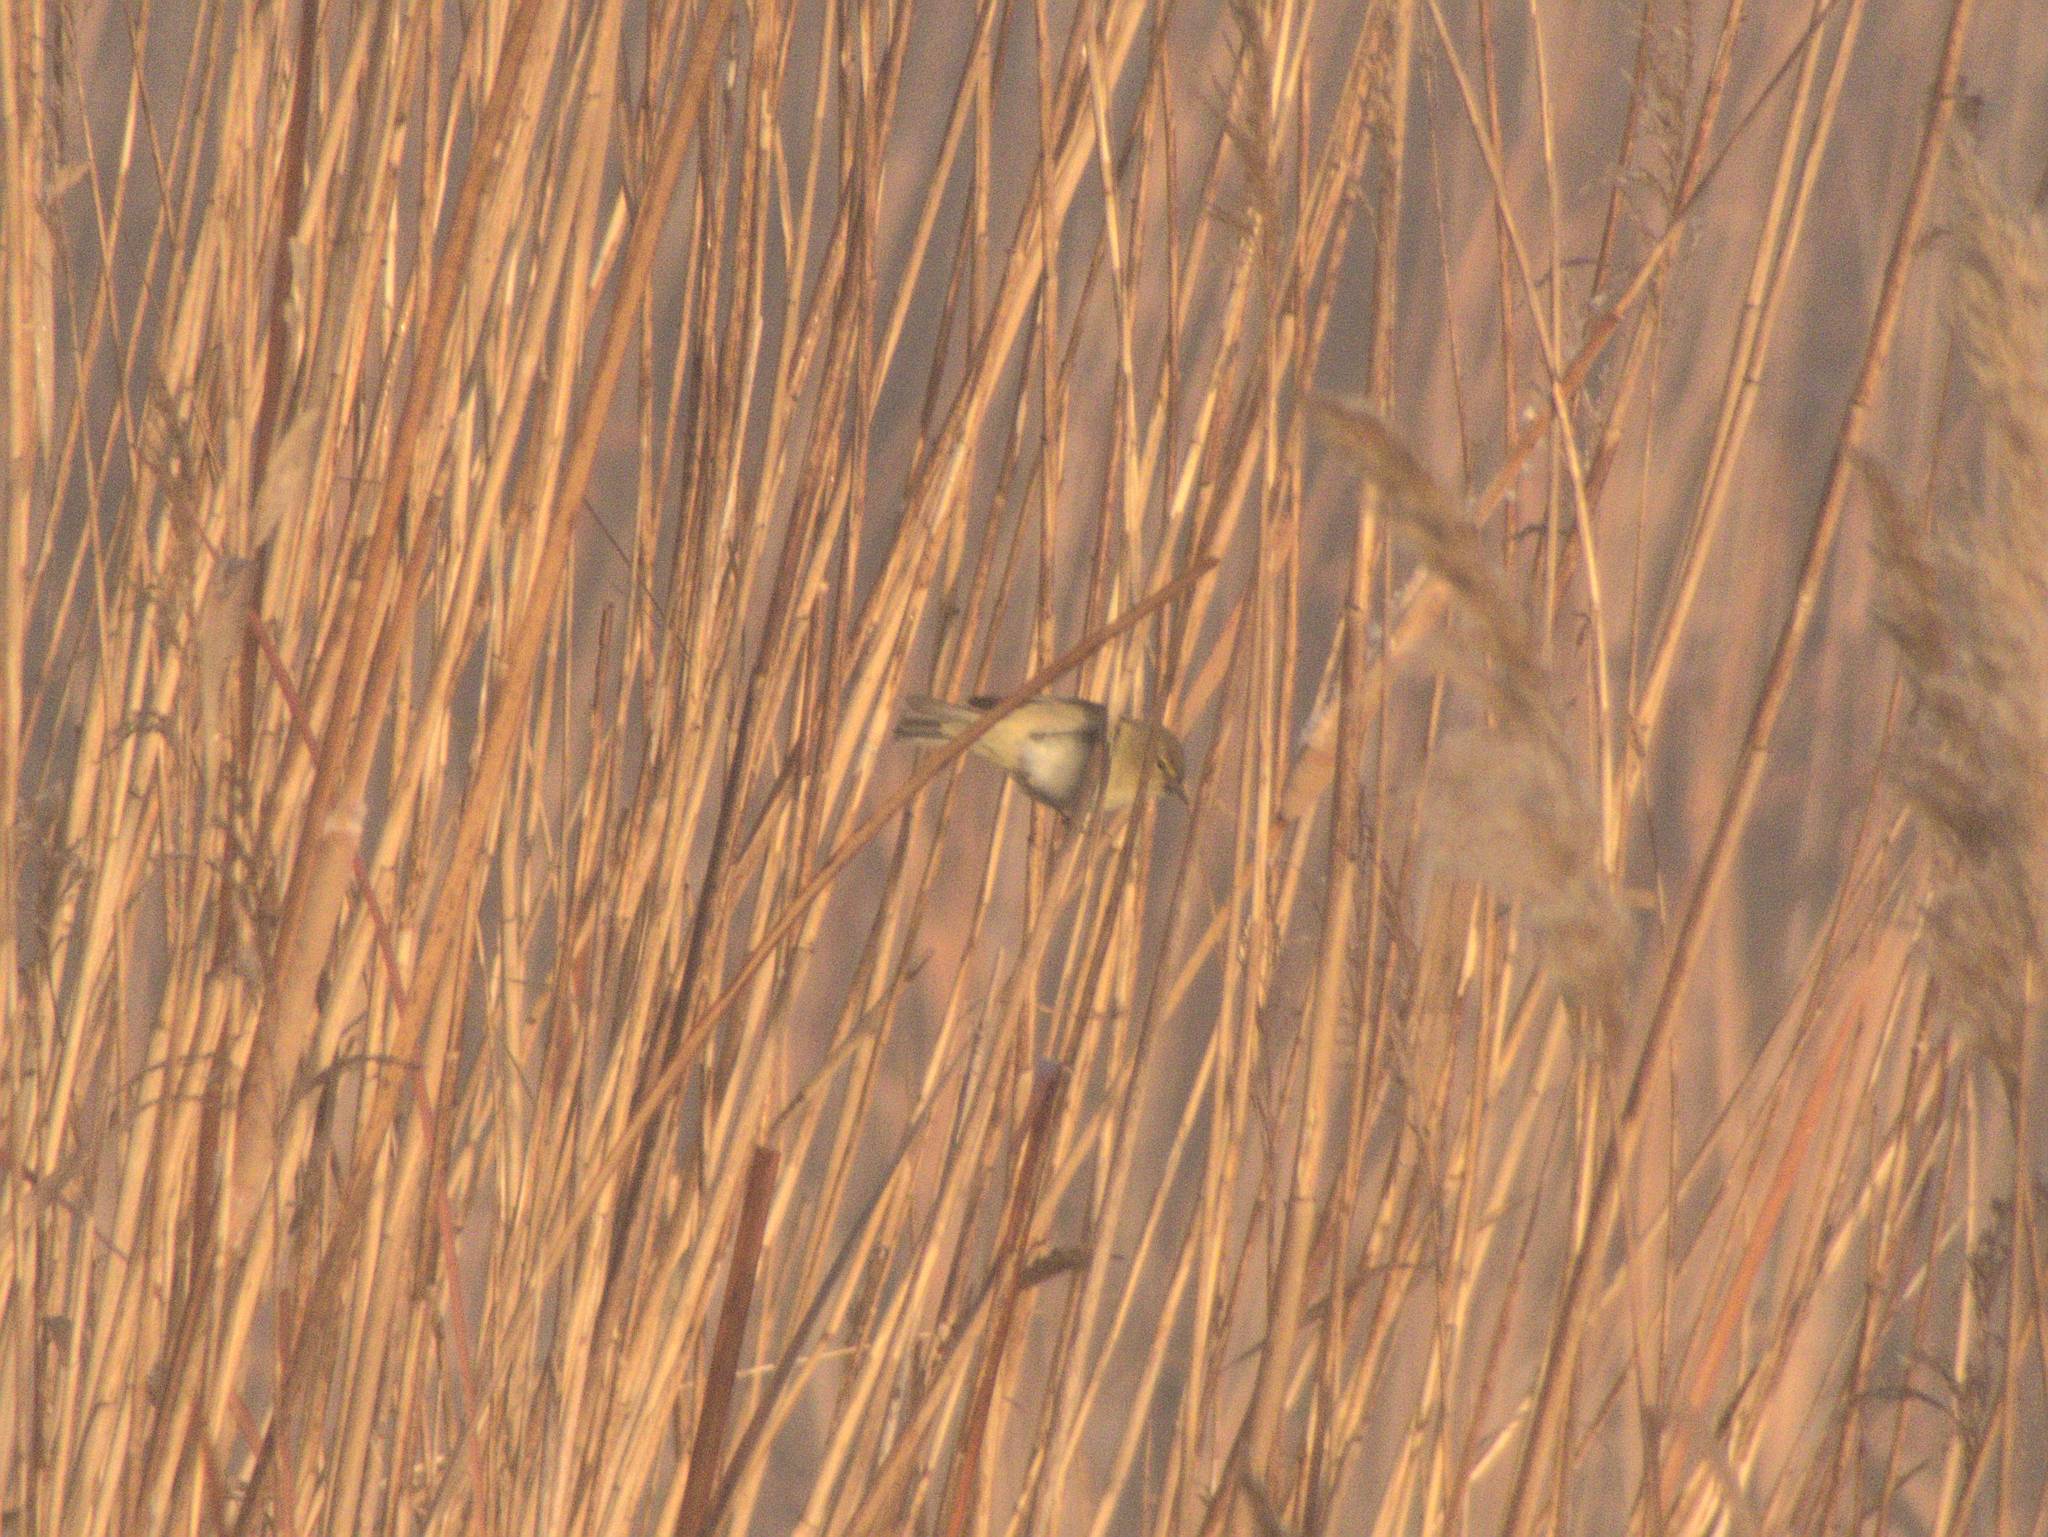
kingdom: Animalia
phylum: Chordata
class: Aves
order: Passeriformes
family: Phylloscopidae
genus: Phylloscopus
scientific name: Phylloscopus collybita
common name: Common chiffchaff
